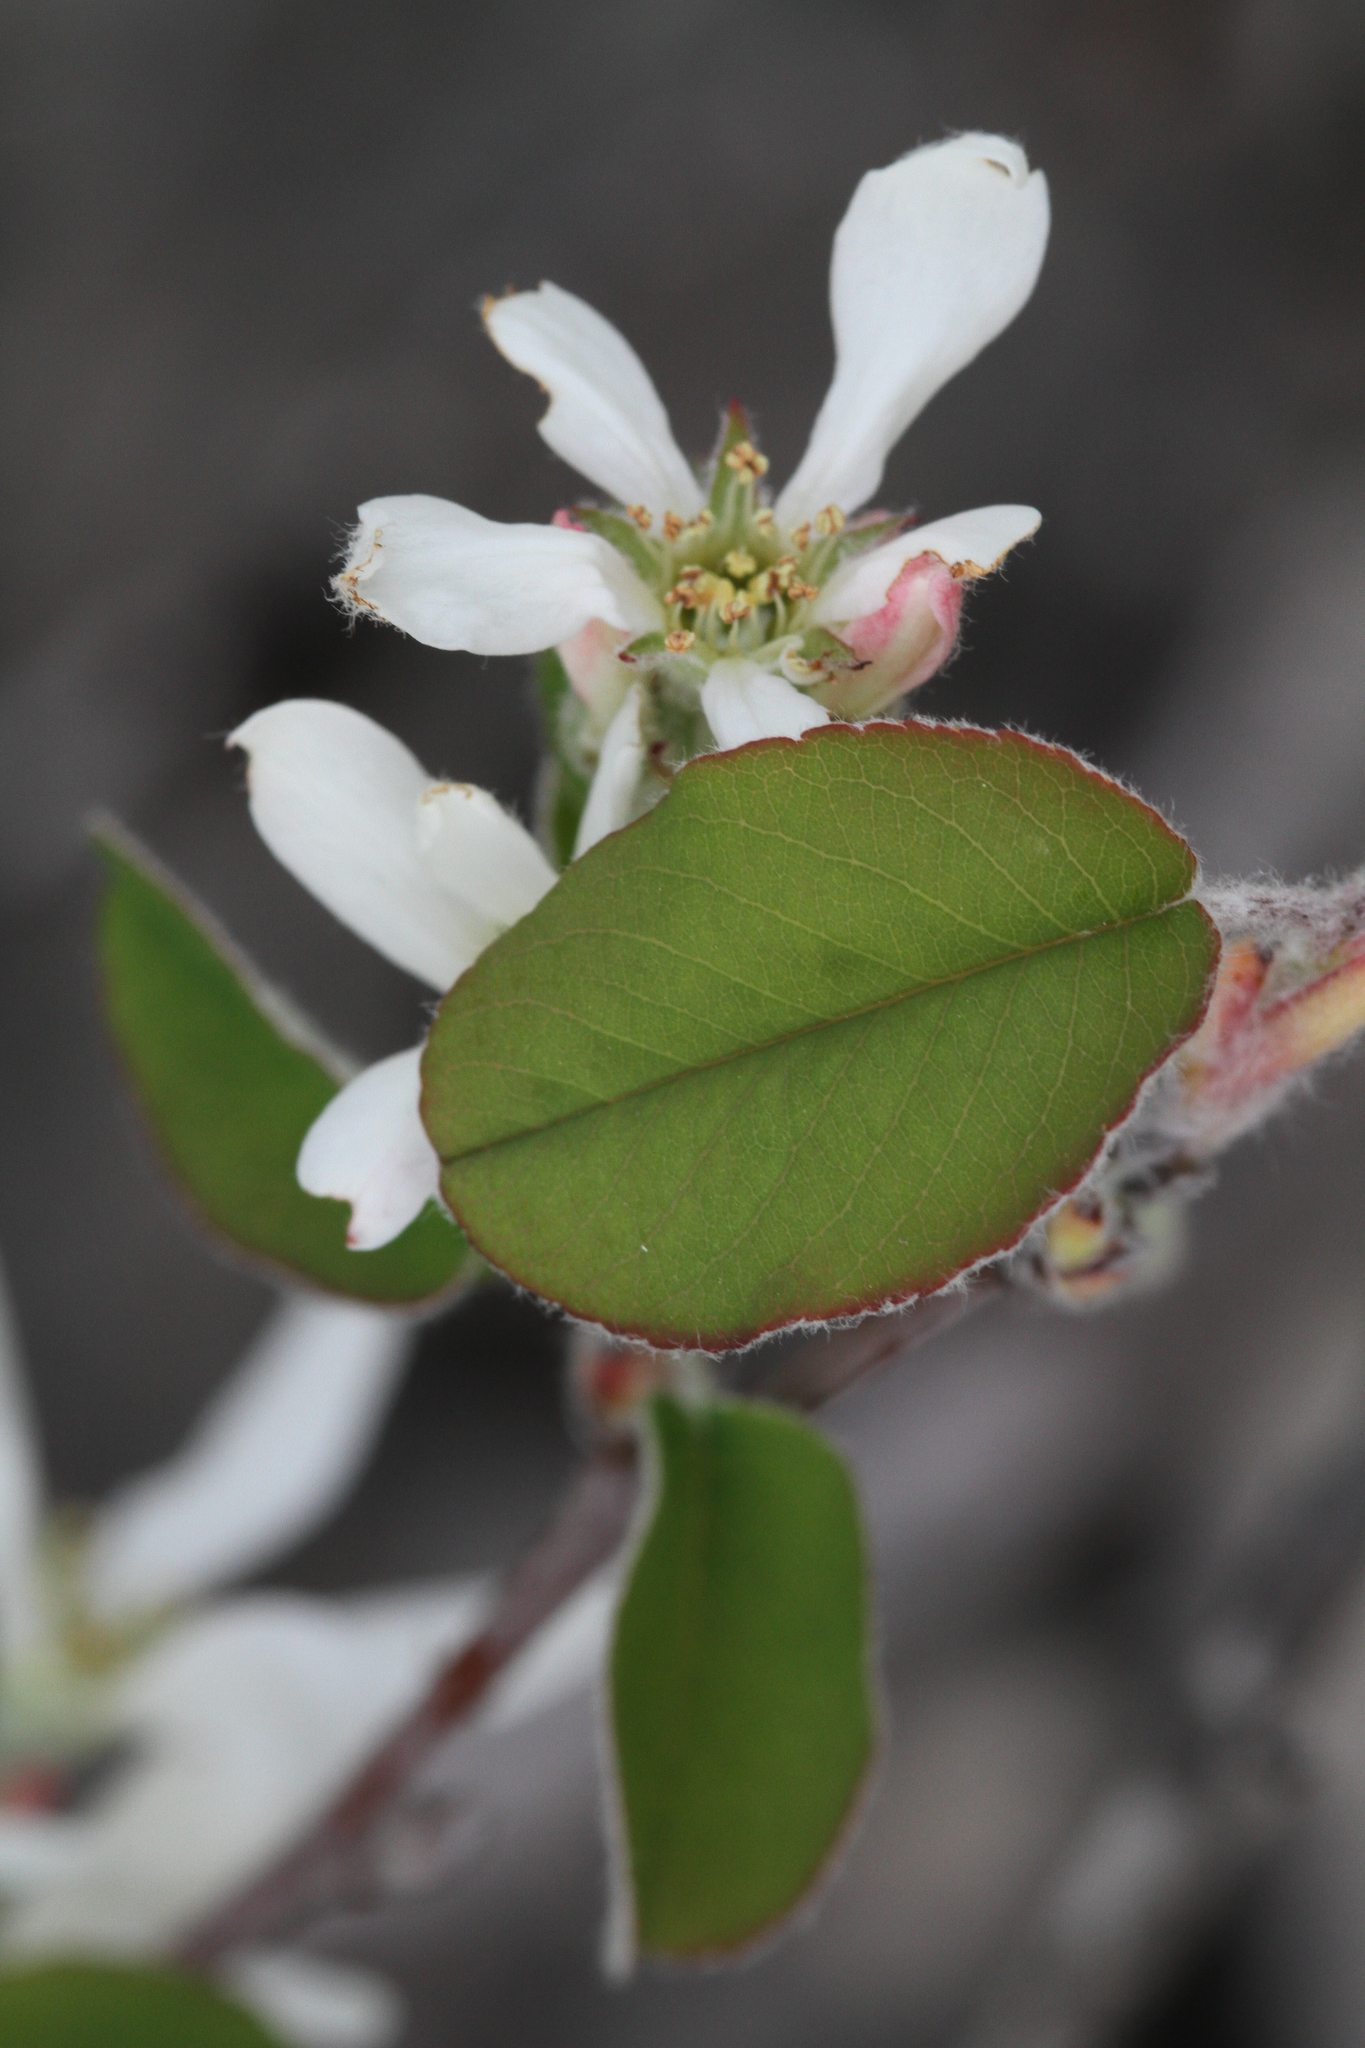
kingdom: Plantae
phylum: Tracheophyta
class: Magnoliopsida
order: Rosales
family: Rosaceae
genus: Amelanchier
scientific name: Amelanchier ovalis
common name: Serviceberry
